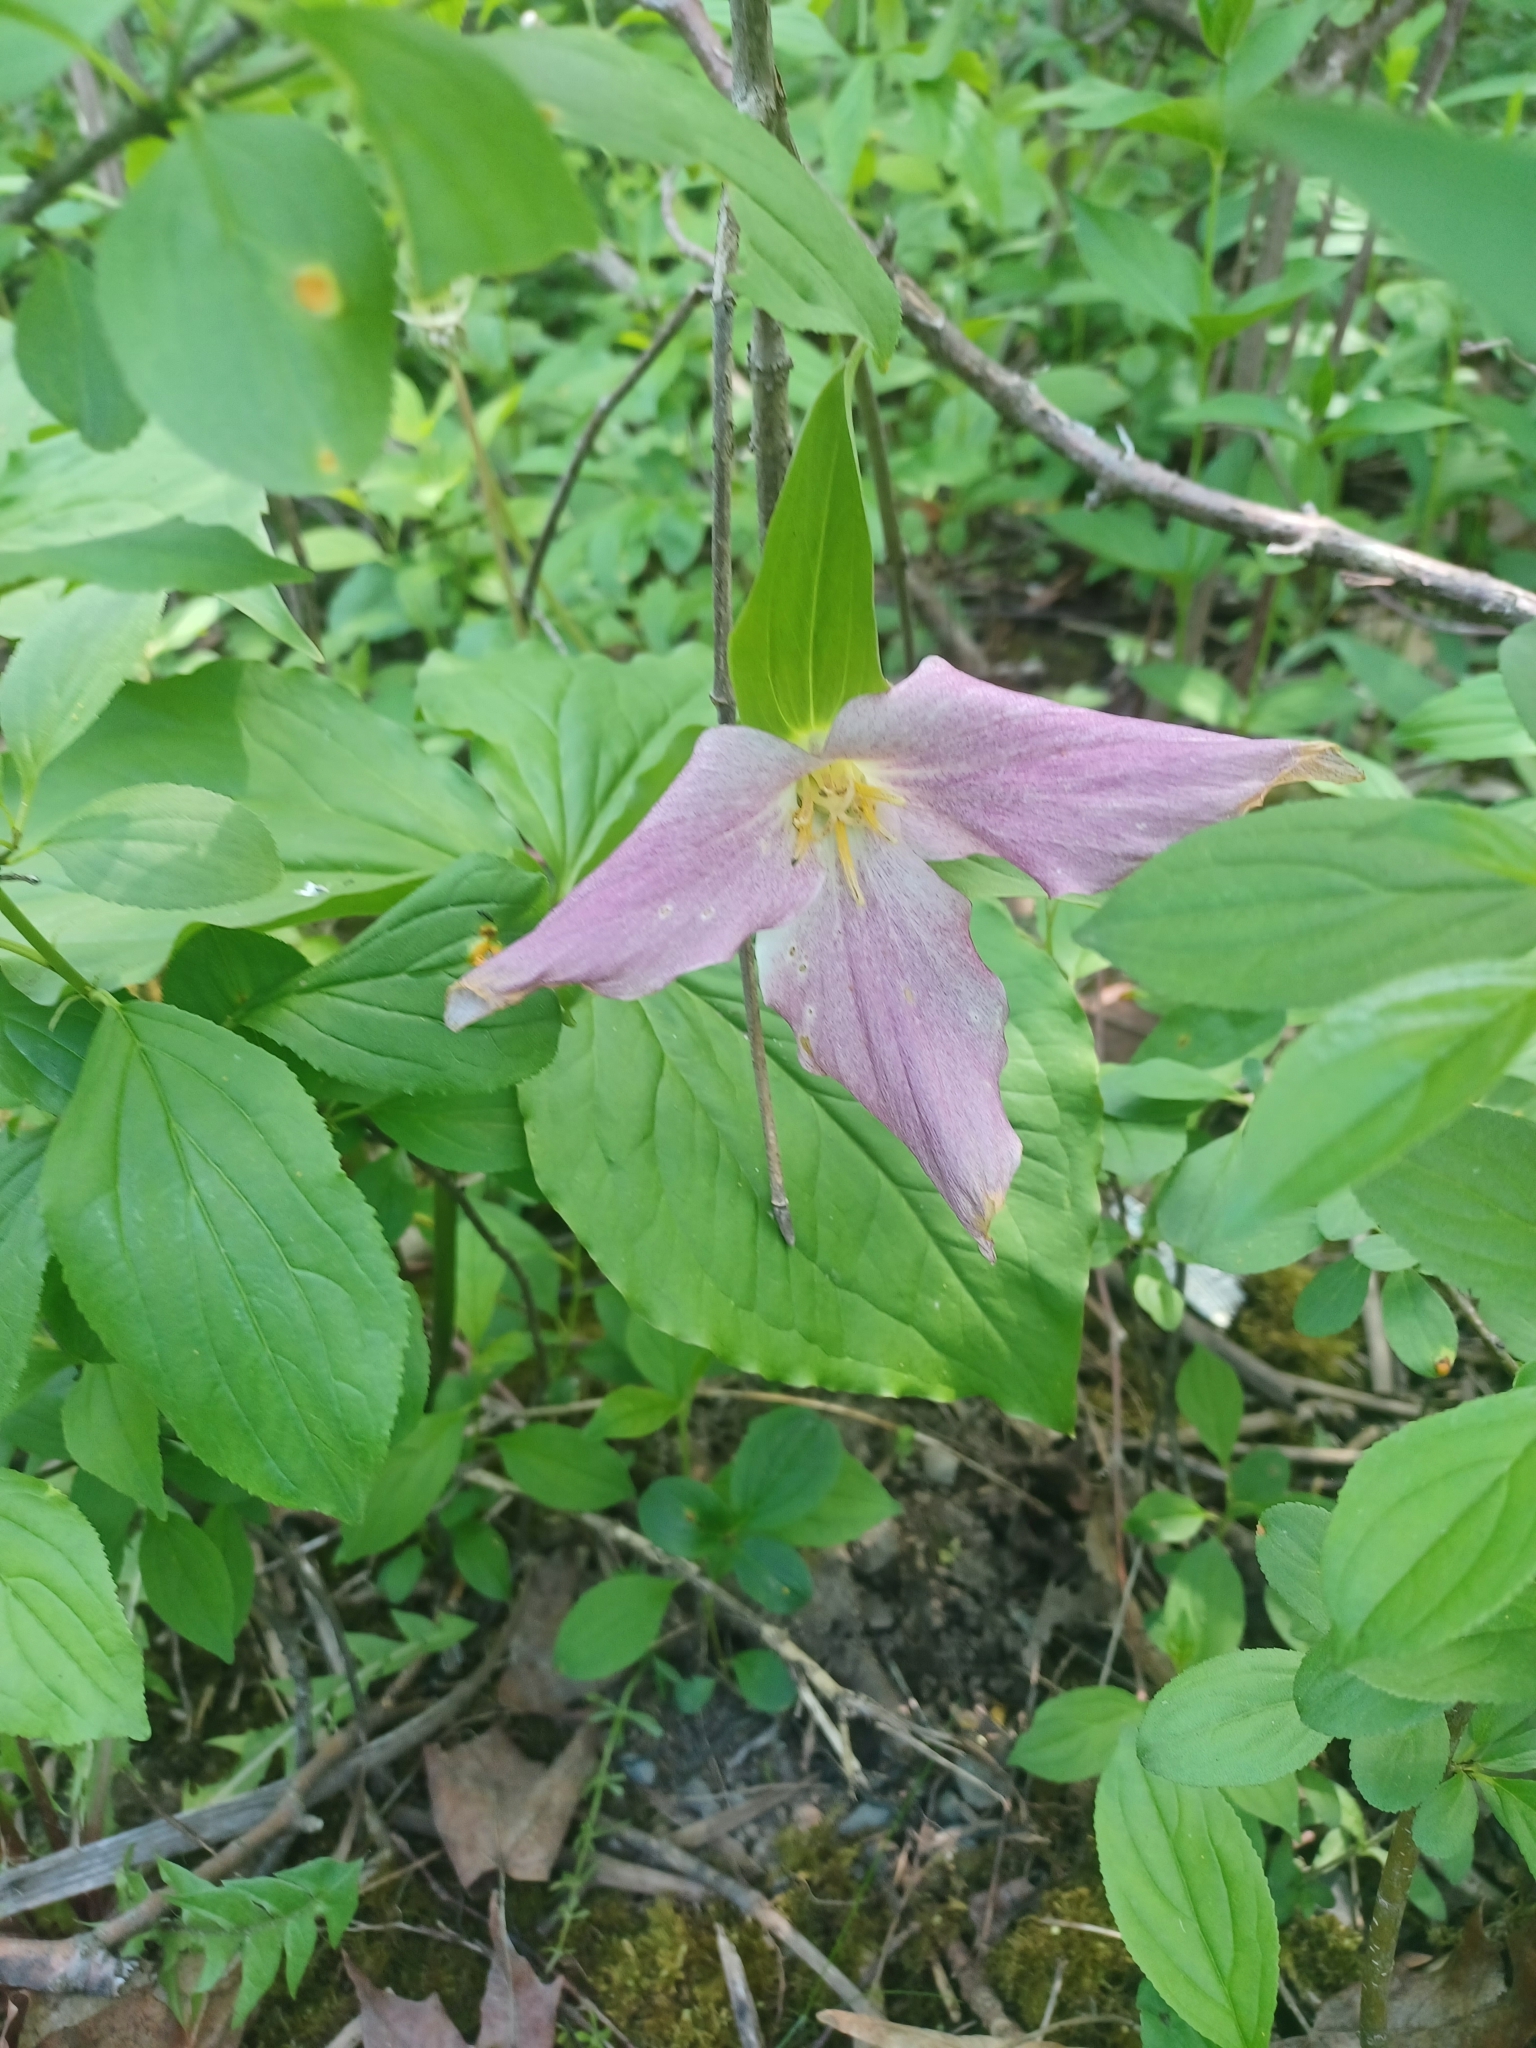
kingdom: Plantae
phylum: Tracheophyta
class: Liliopsida
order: Liliales
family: Melanthiaceae
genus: Trillium
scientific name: Trillium grandiflorum
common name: Great white trillium
